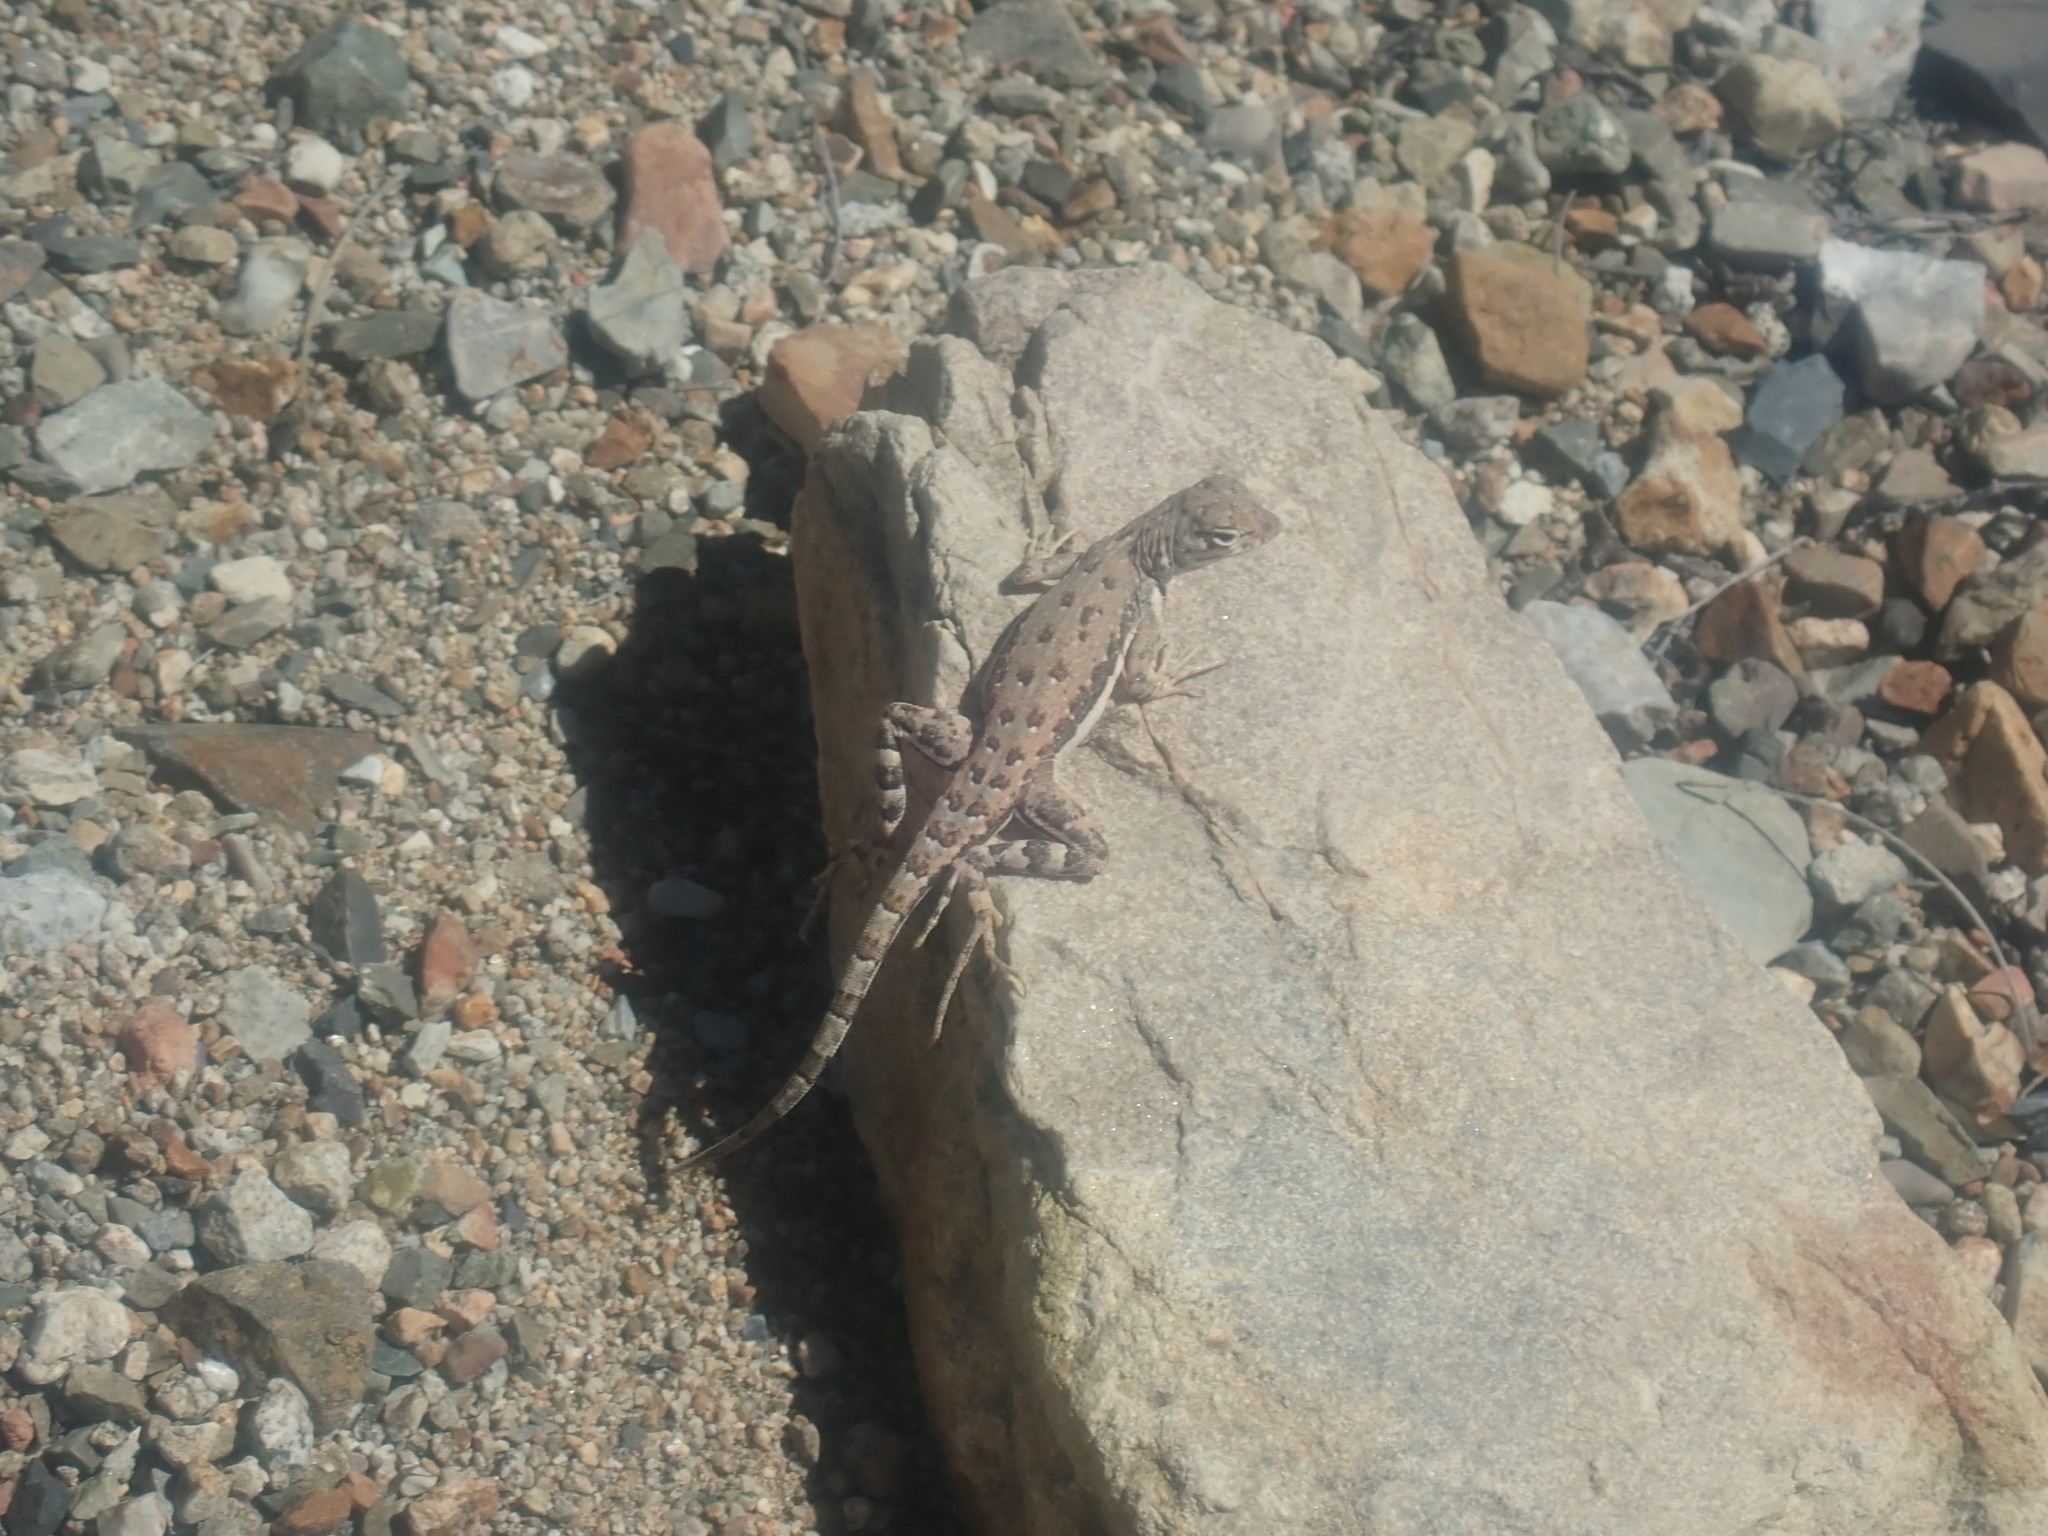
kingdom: Animalia
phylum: Chordata
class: Squamata
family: Phrynosomatidae
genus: Callisaurus
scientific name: Callisaurus draconoides
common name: Zebra-tailed lizard
